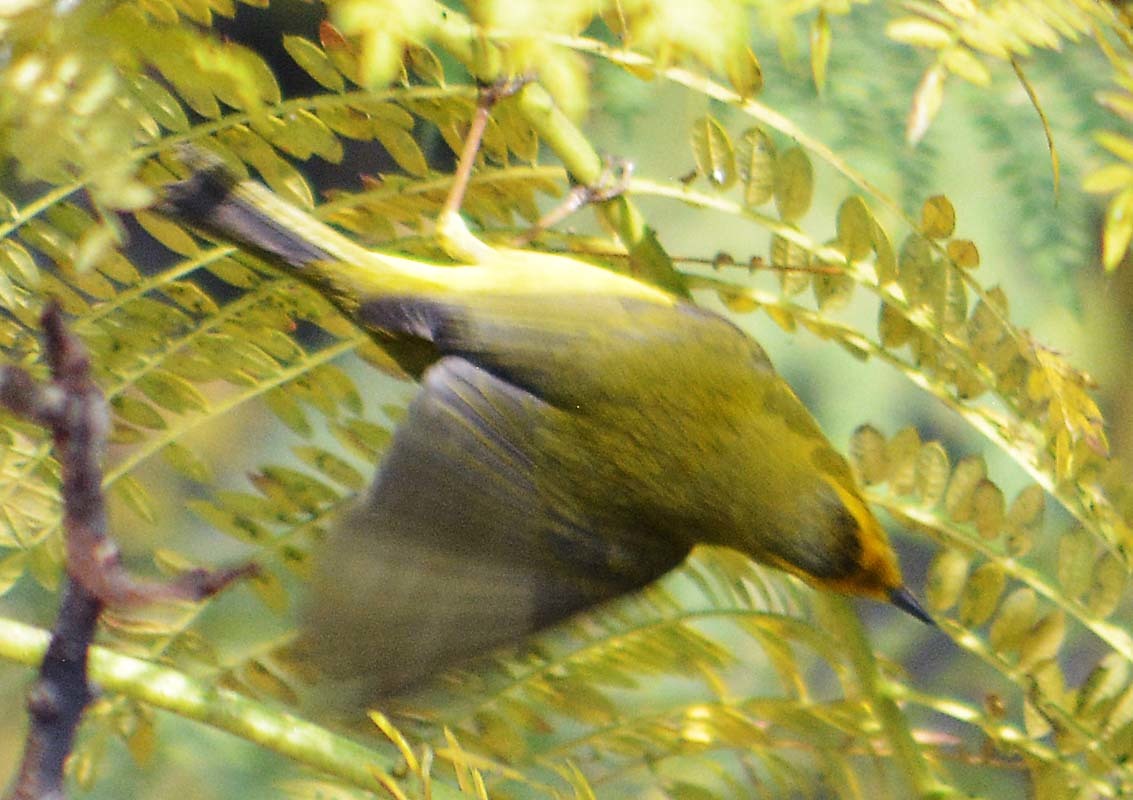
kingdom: Animalia
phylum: Chordata
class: Aves
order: Passeriformes
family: Parulidae
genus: Cardellina
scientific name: Cardellina pusilla
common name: Wilson's warbler
